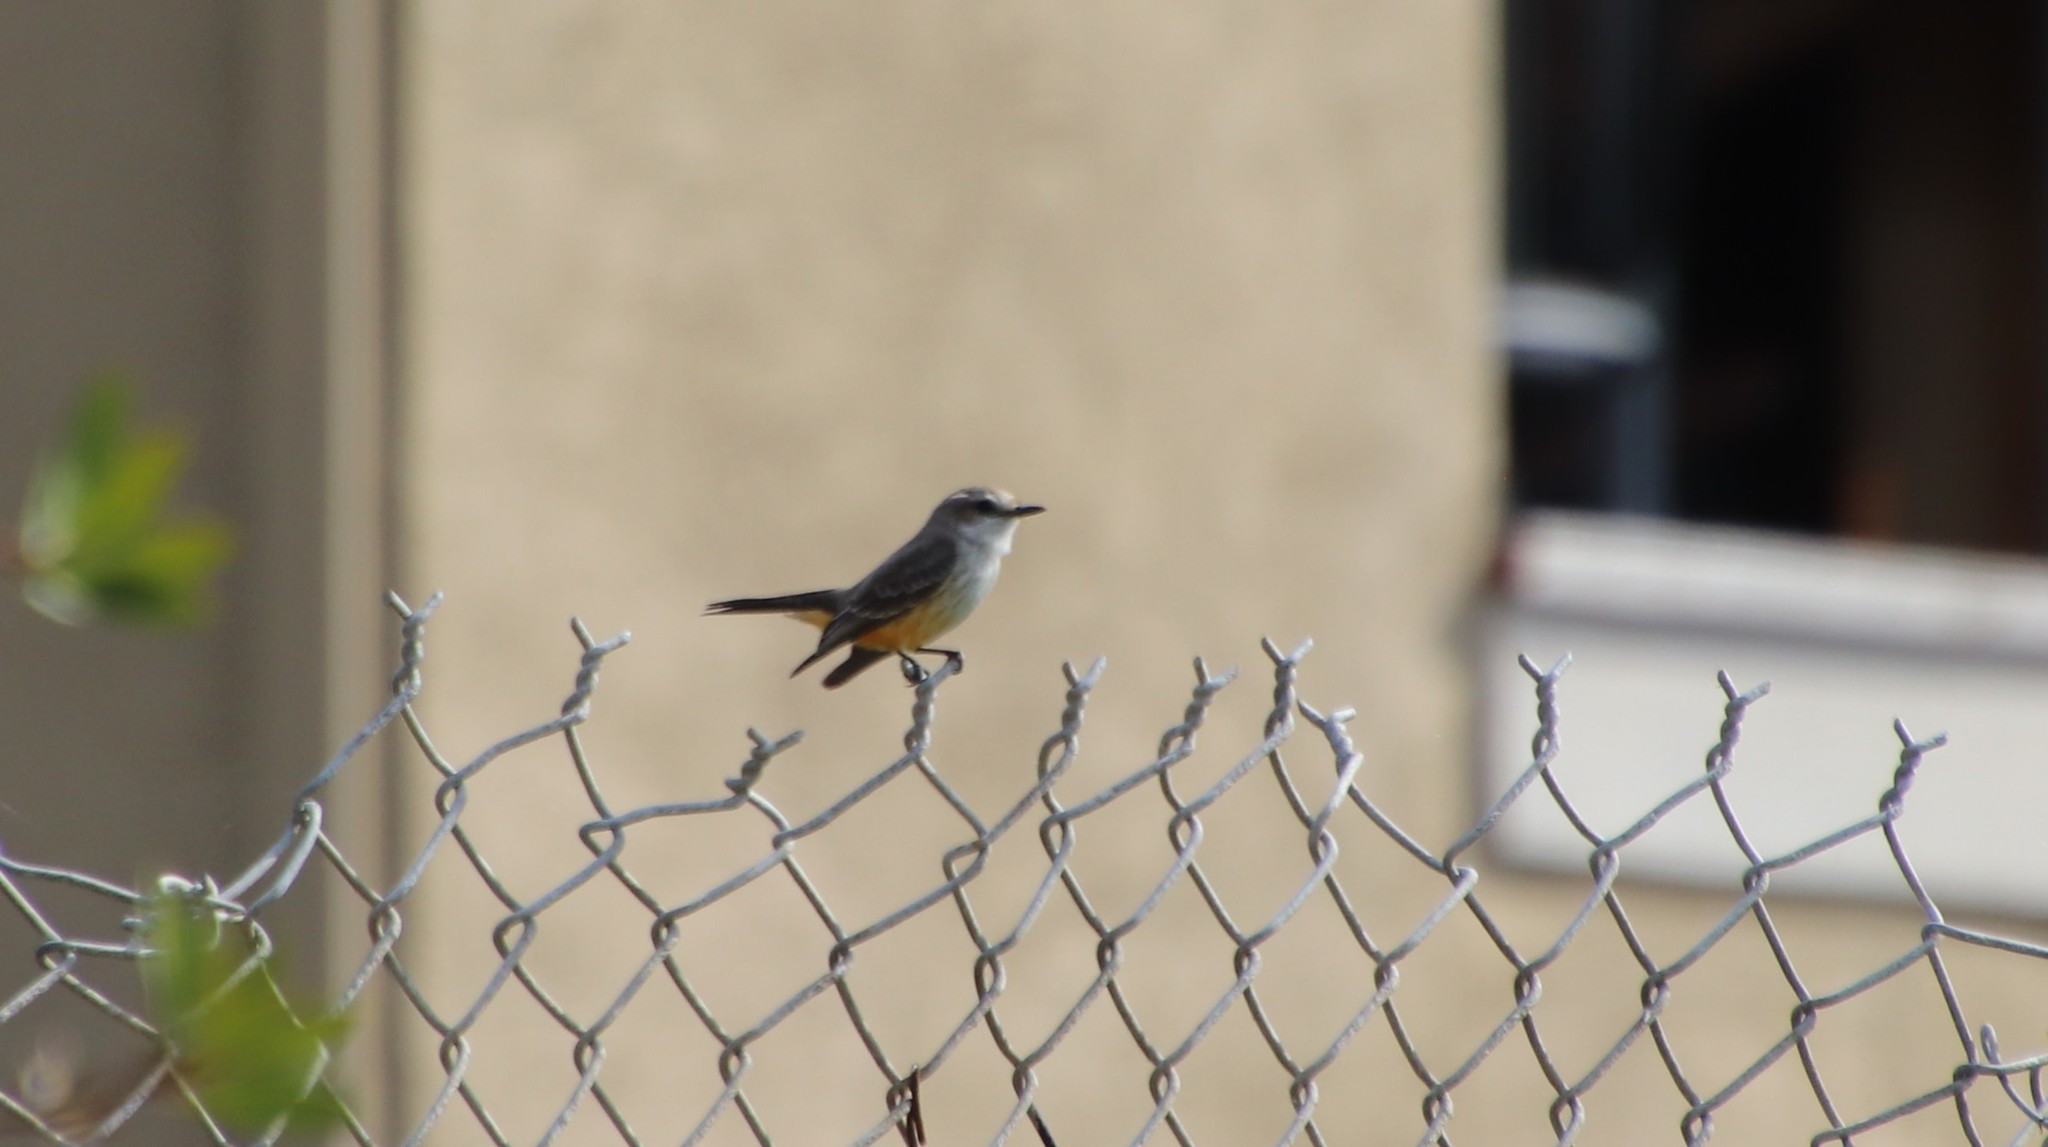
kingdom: Animalia
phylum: Chordata
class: Aves
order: Passeriformes
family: Tyrannidae
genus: Pyrocephalus
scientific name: Pyrocephalus rubinus
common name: Vermilion flycatcher
